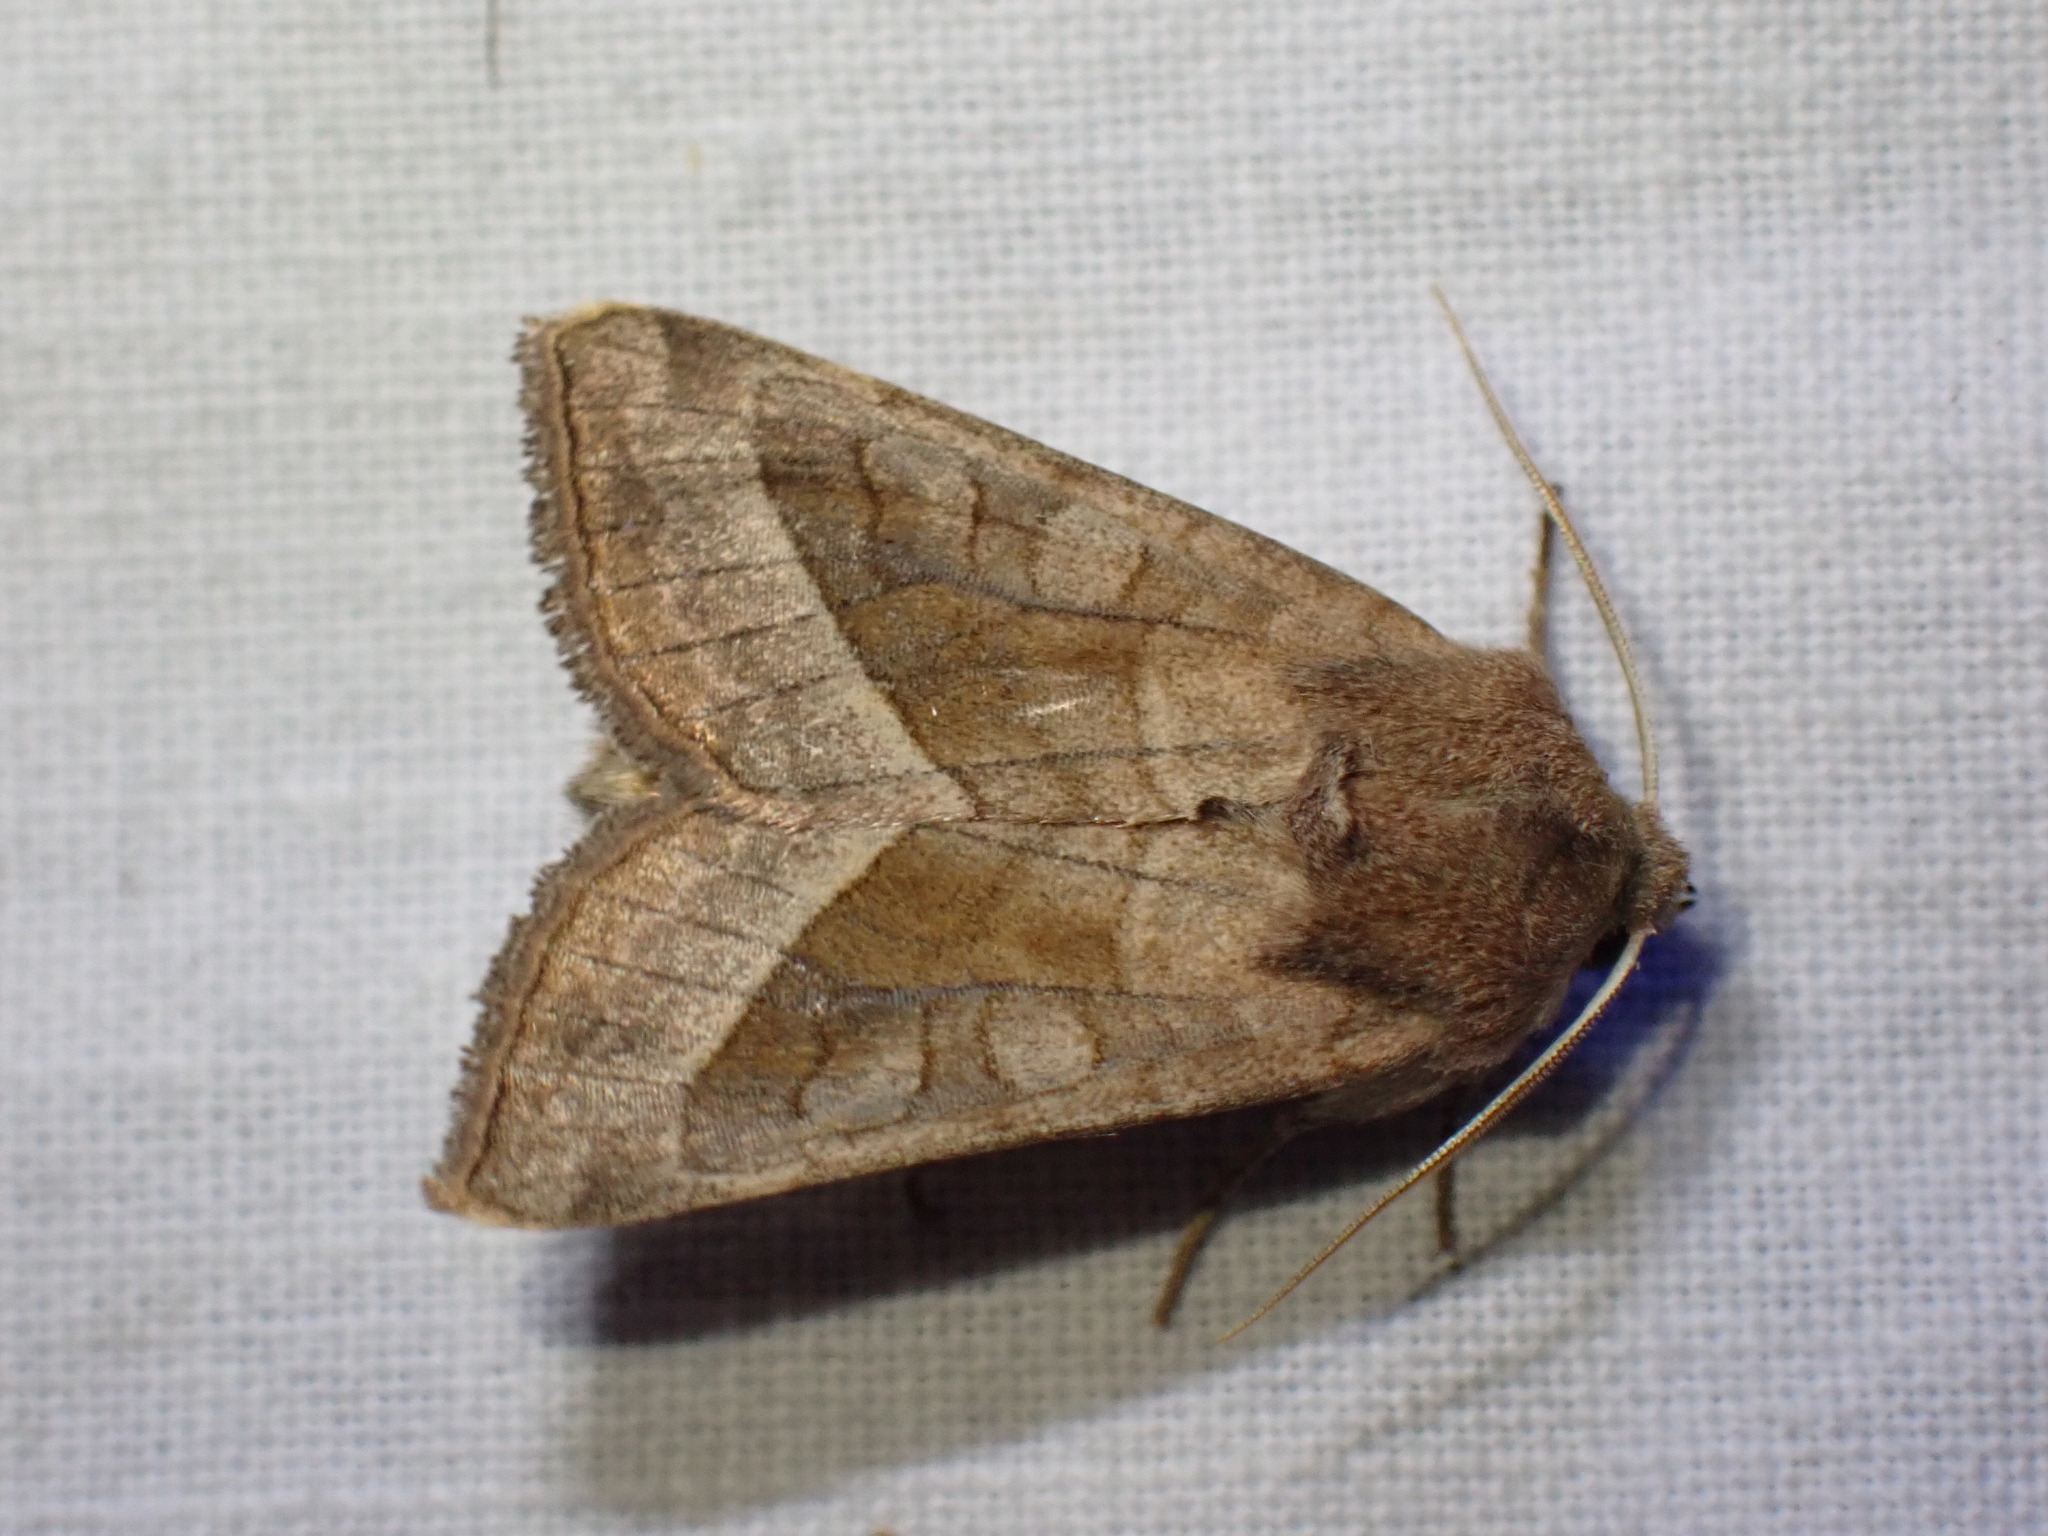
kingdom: Animalia
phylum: Arthropoda
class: Insecta
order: Lepidoptera
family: Noctuidae
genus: Hydraecia
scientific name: Hydraecia micacea
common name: Rosy rustic
